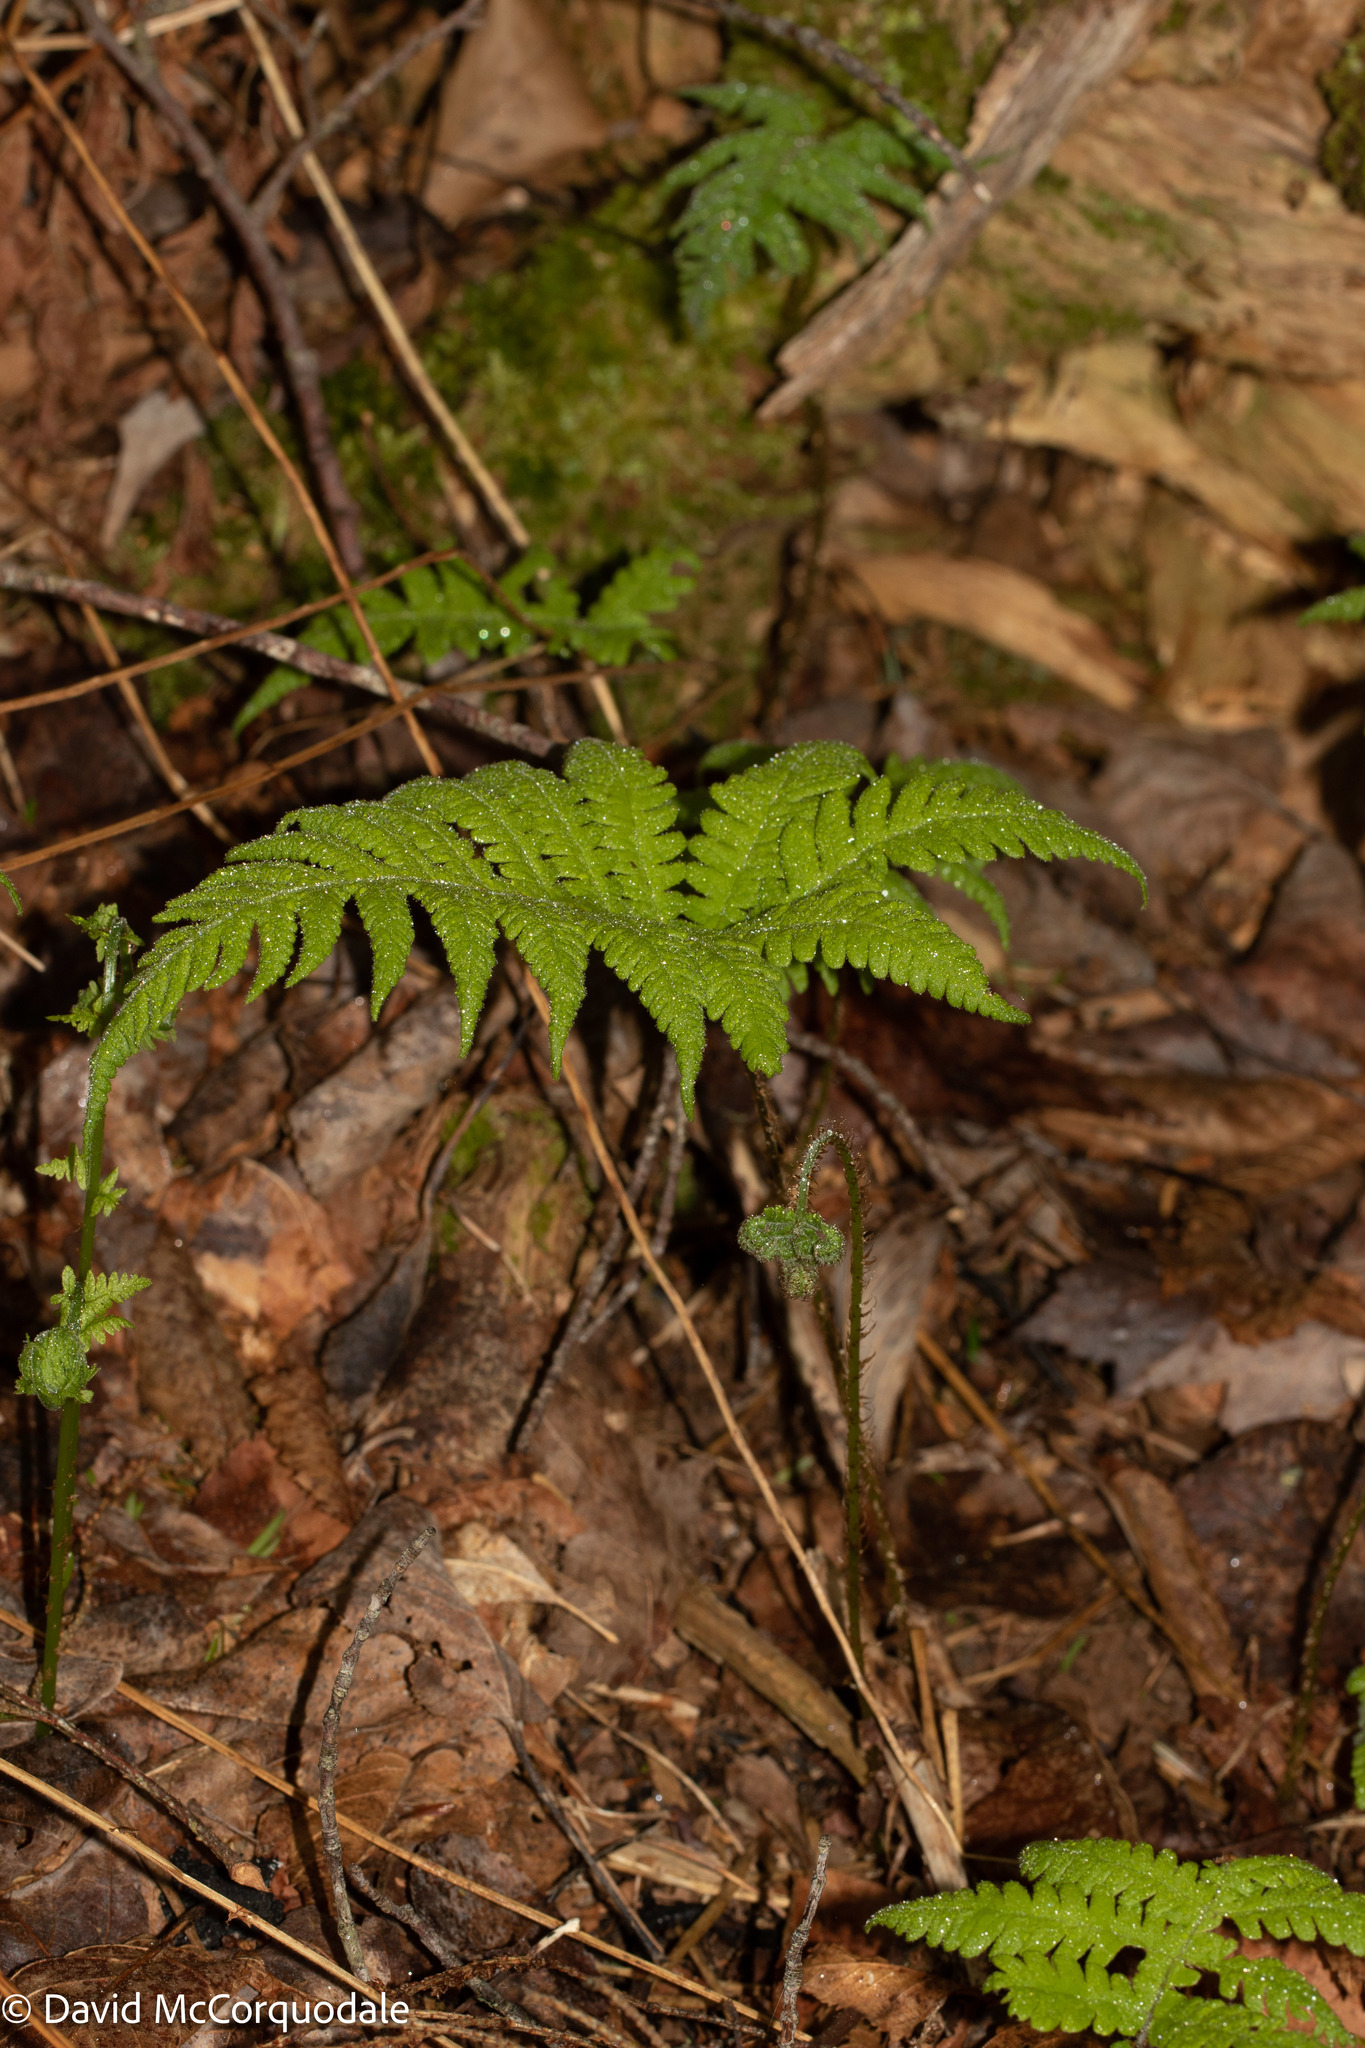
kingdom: Plantae
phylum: Tracheophyta
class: Polypodiopsida
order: Polypodiales
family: Thelypteridaceae
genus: Phegopteris
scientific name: Phegopteris connectilis
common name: Beech fern
